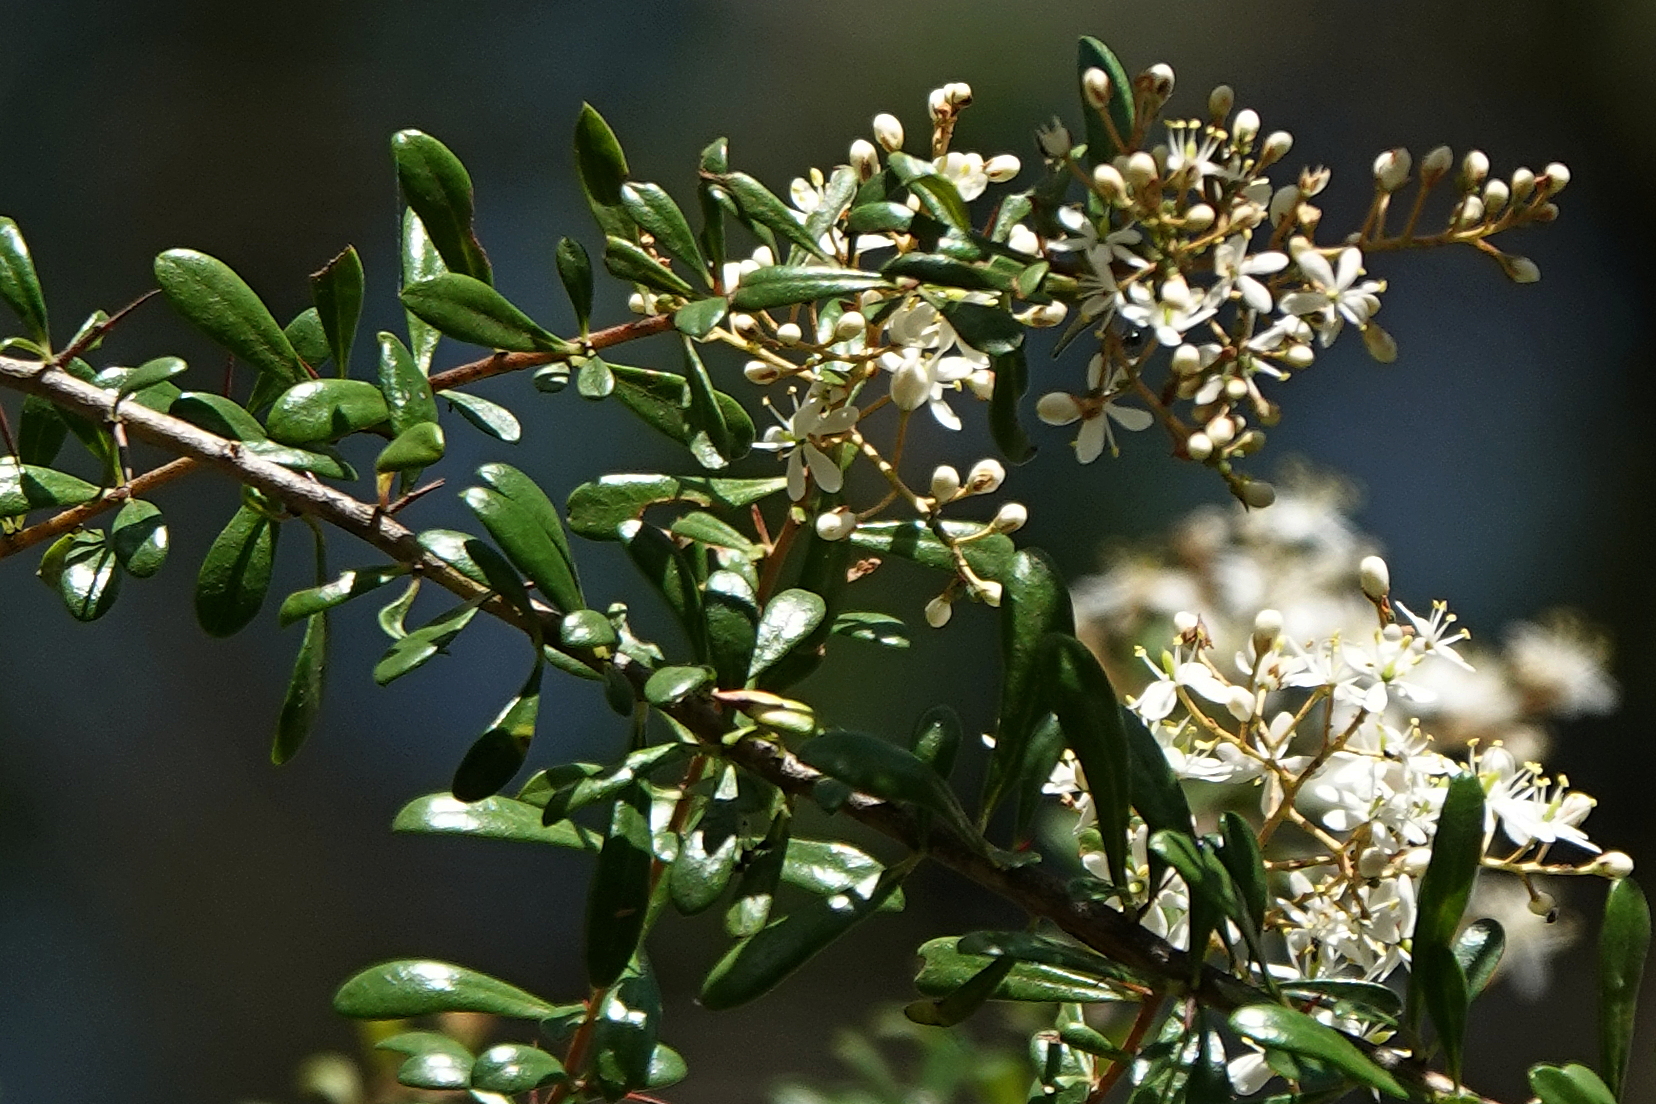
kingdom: Plantae
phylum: Tracheophyta
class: Magnoliopsida
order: Apiales
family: Pittosporaceae
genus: Bursaria
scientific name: Bursaria spinosa
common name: Australian blackthorn
